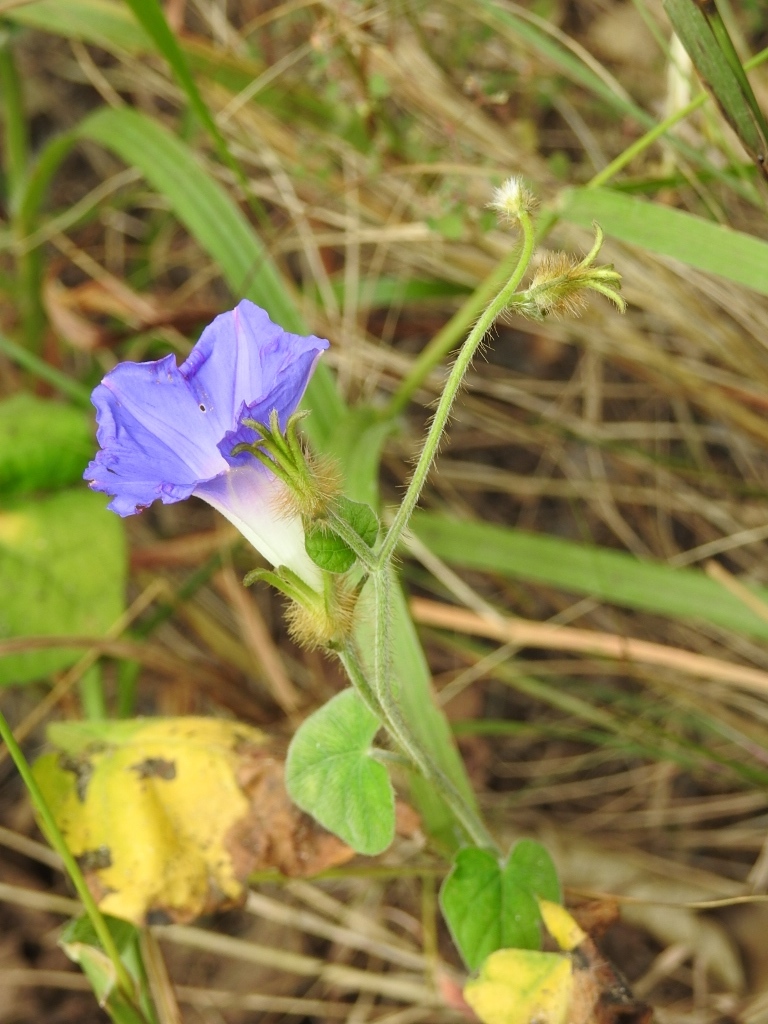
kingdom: Plantae
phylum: Tracheophyta
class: Magnoliopsida
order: Solanales
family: Convolvulaceae
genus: Ipomoea
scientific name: Ipomoea hederacea
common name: Ivy-leaved morning-glory
